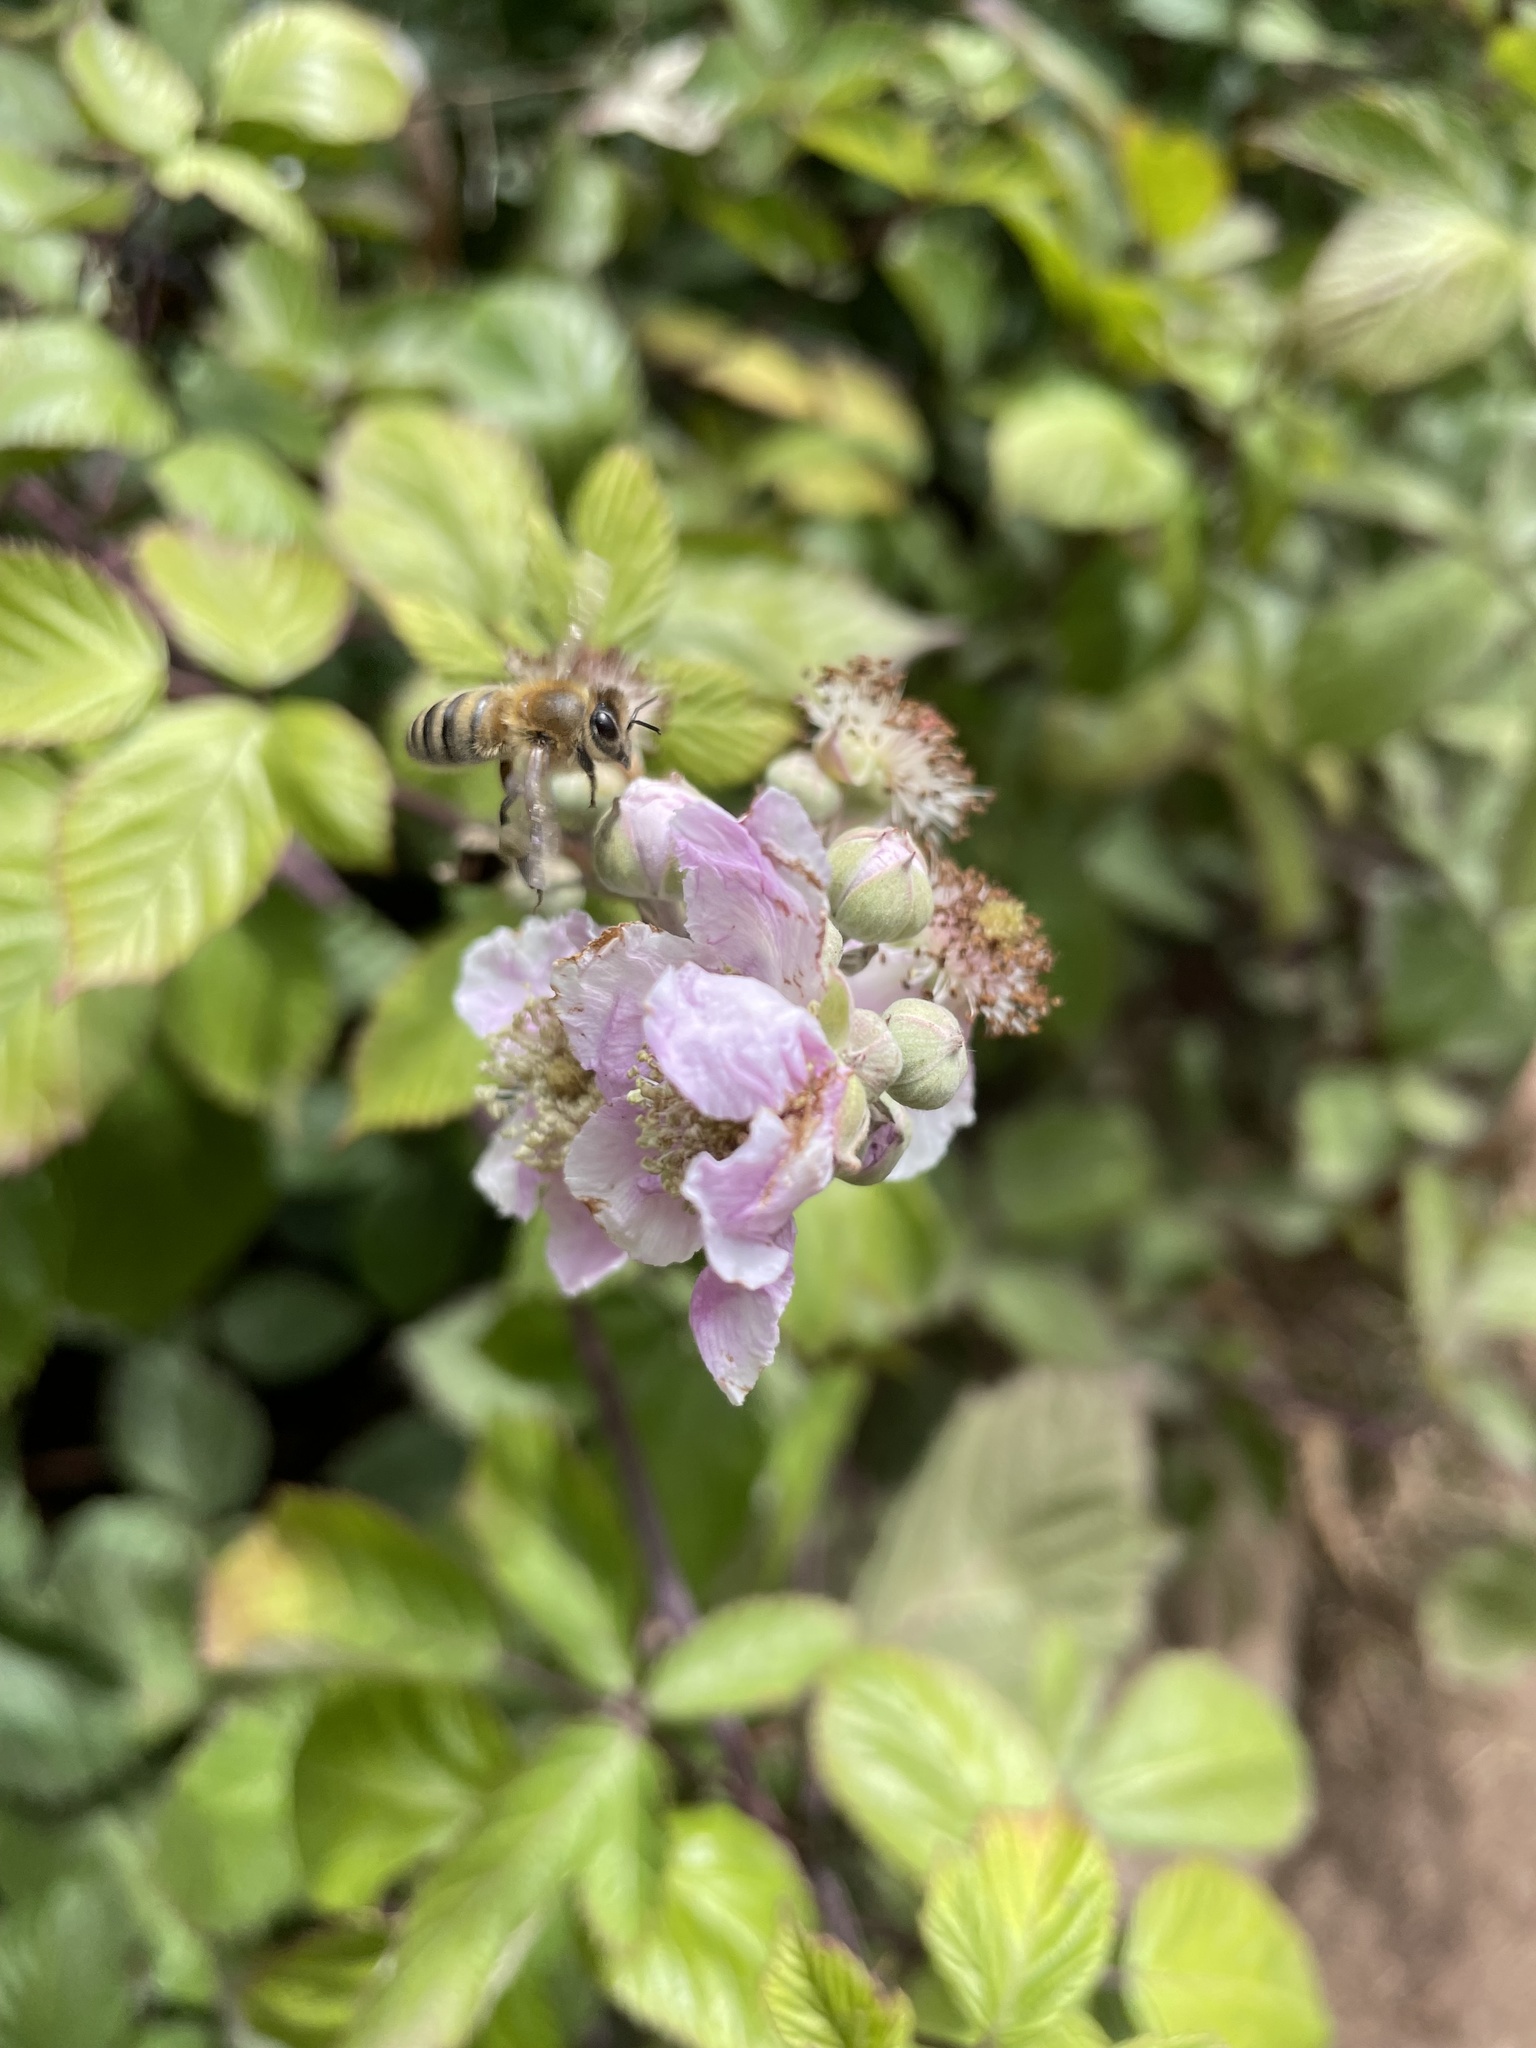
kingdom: Plantae
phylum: Tracheophyta
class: Magnoliopsida
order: Rosales
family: Rosaceae
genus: Rubus
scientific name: Rubus armeniacus
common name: Himalayan blackberry
